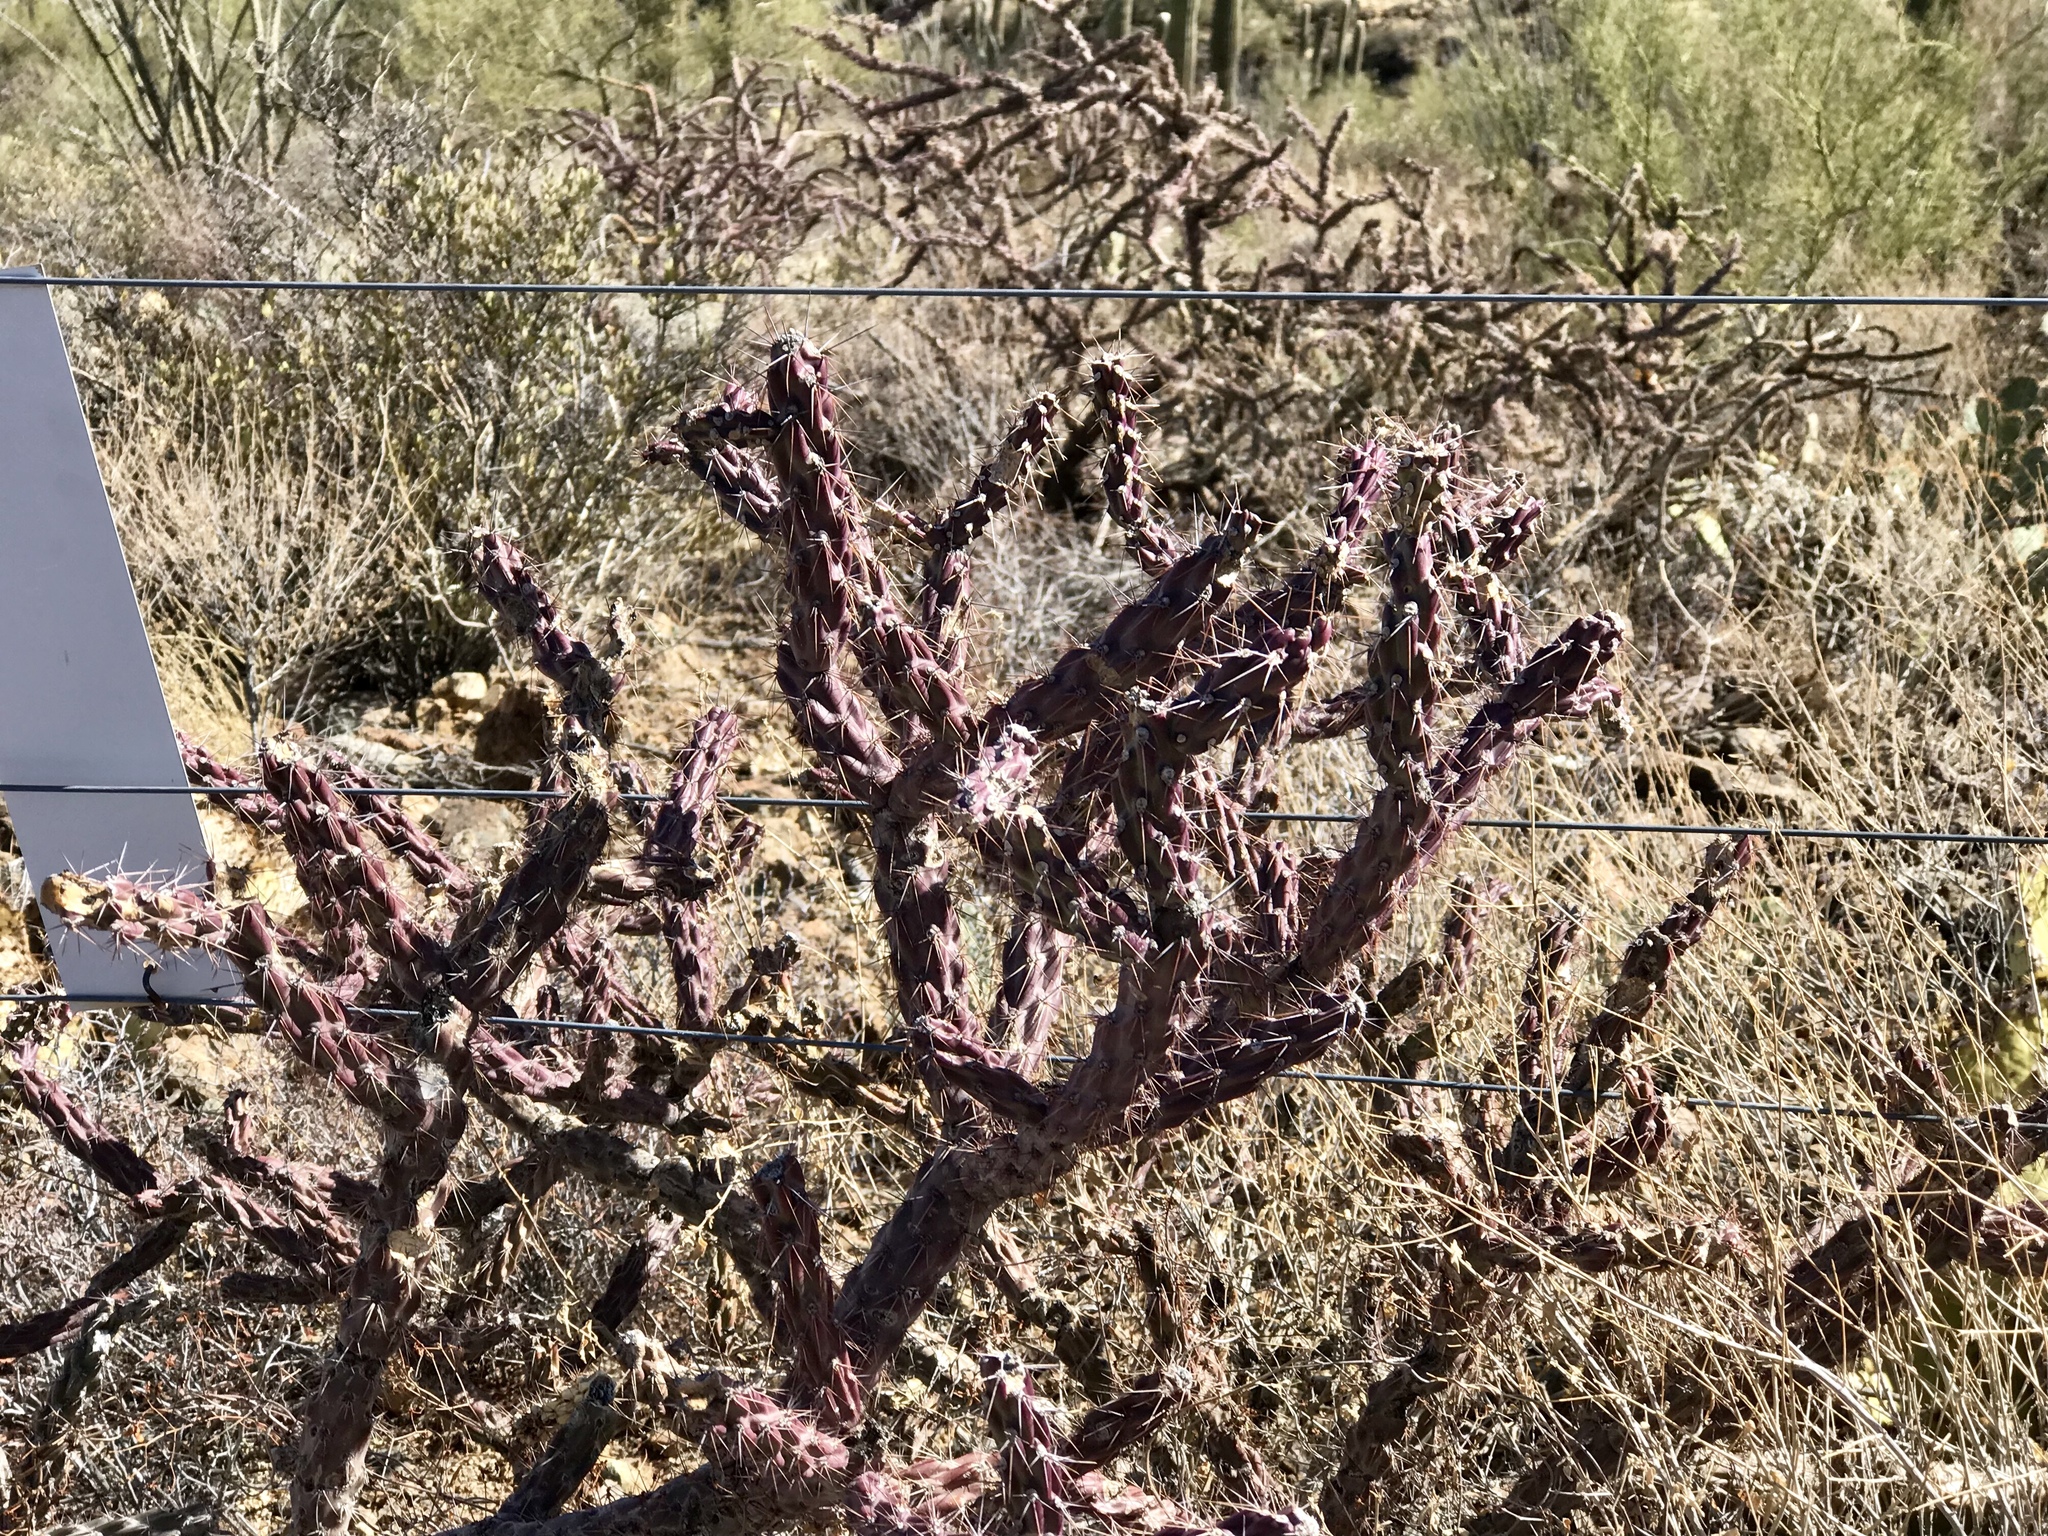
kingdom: Plantae
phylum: Tracheophyta
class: Magnoliopsida
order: Caryophyllales
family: Cactaceae
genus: Cylindropuntia
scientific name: Cylindropuntia thurberi
